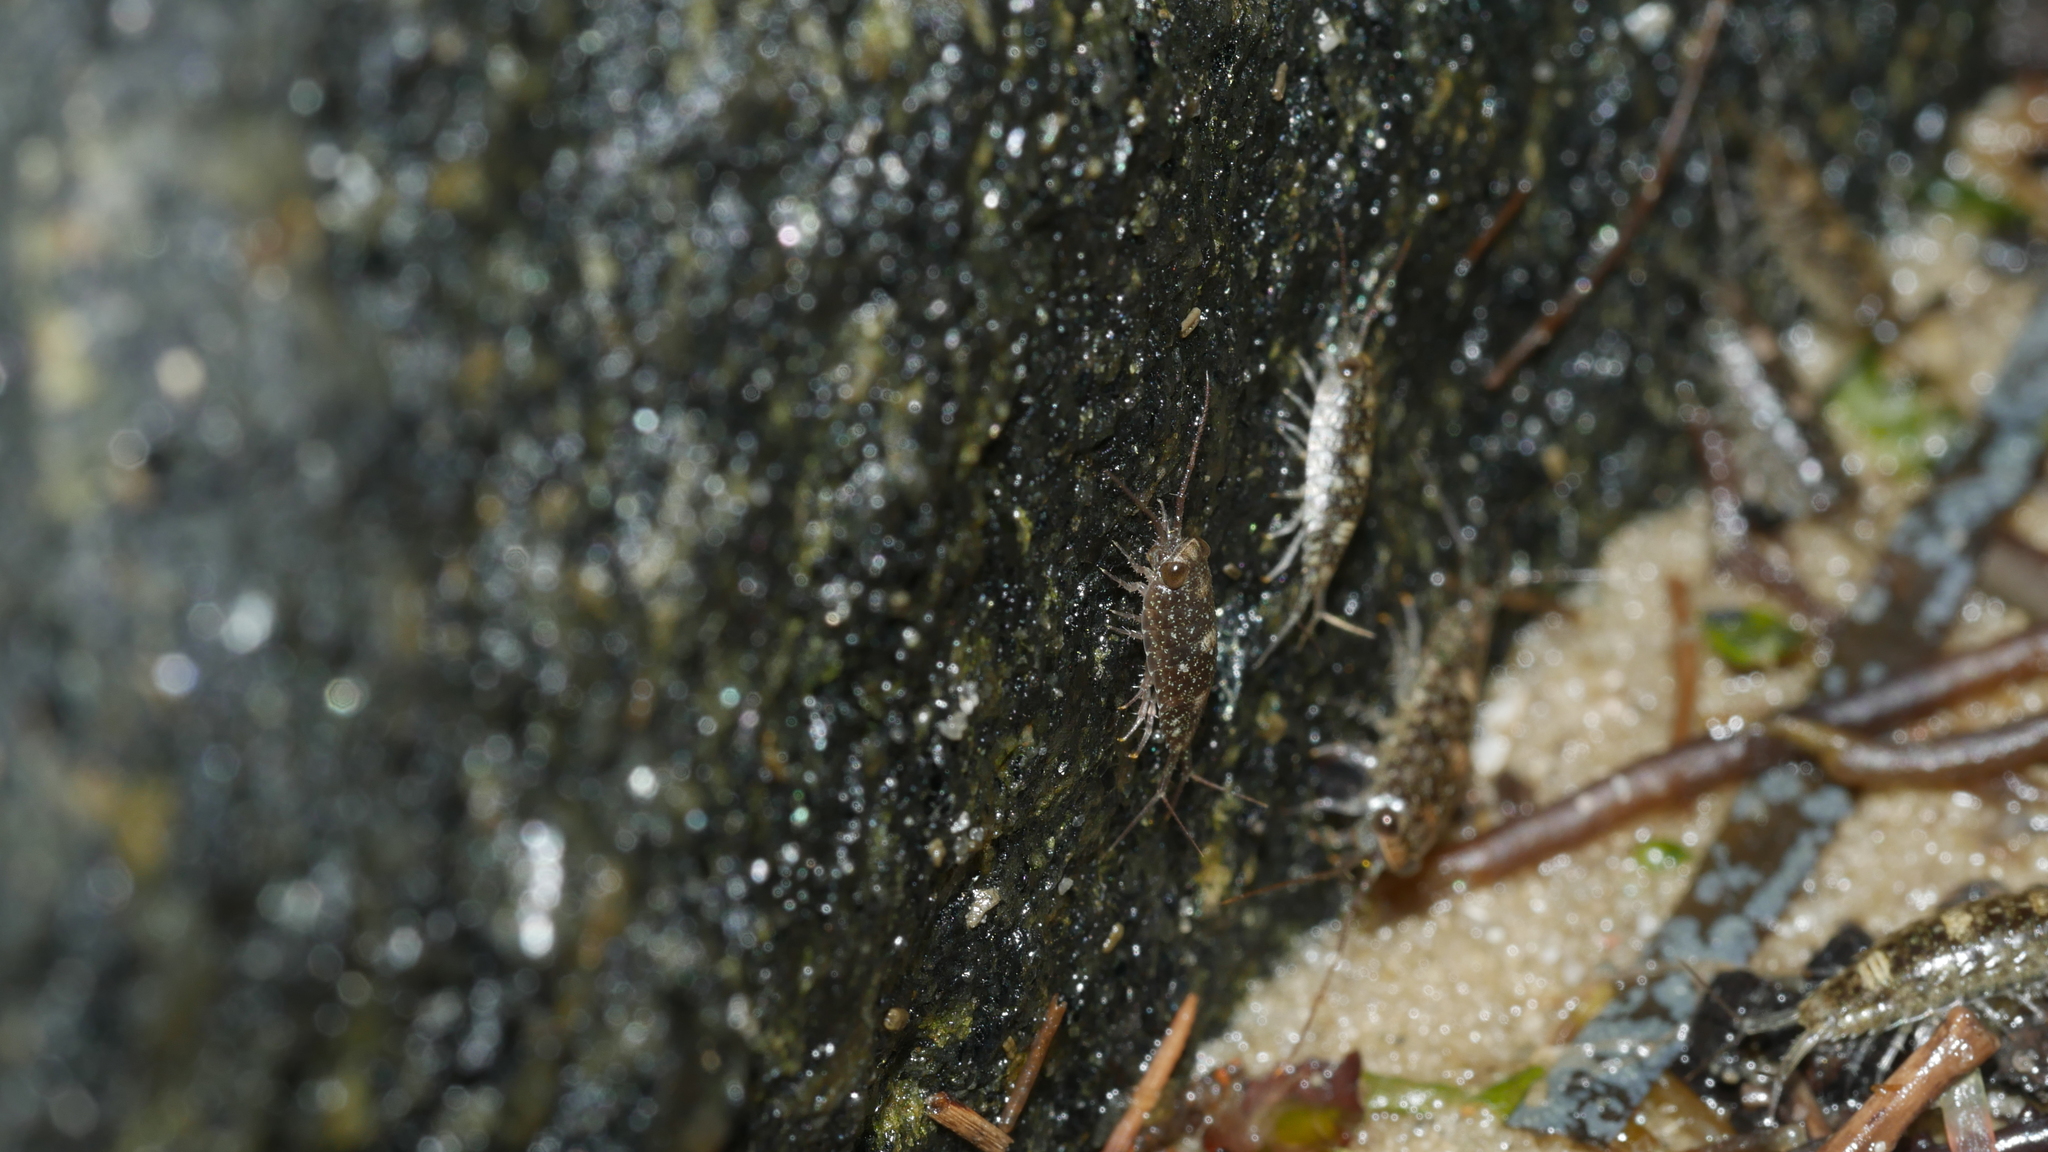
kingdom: Animalia
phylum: Arthropoda
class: Malacostraca
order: Isopoda
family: Ligiidae
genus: Ligia
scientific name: Ligia exotica
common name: Wharf roach
